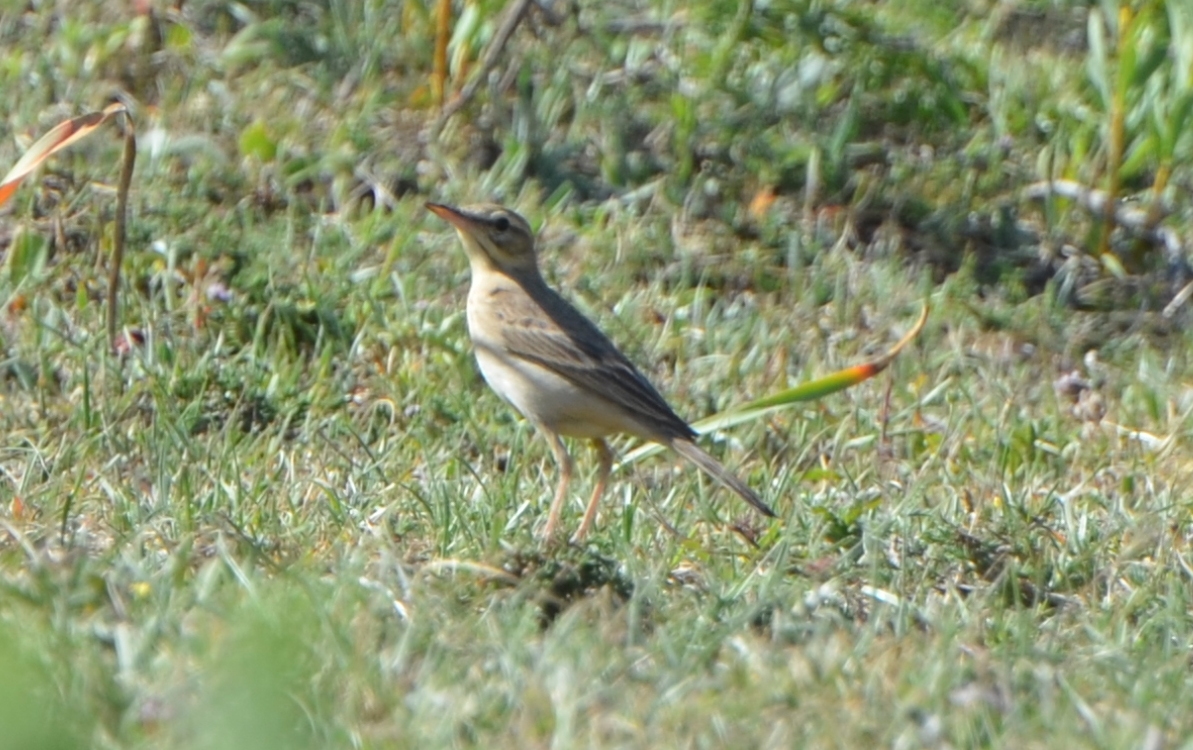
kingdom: Animalia
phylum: Chordata
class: Aves
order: Passeriformes
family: Motacillidae
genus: Anthus
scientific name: Anthus campestris
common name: Tawny pipit
